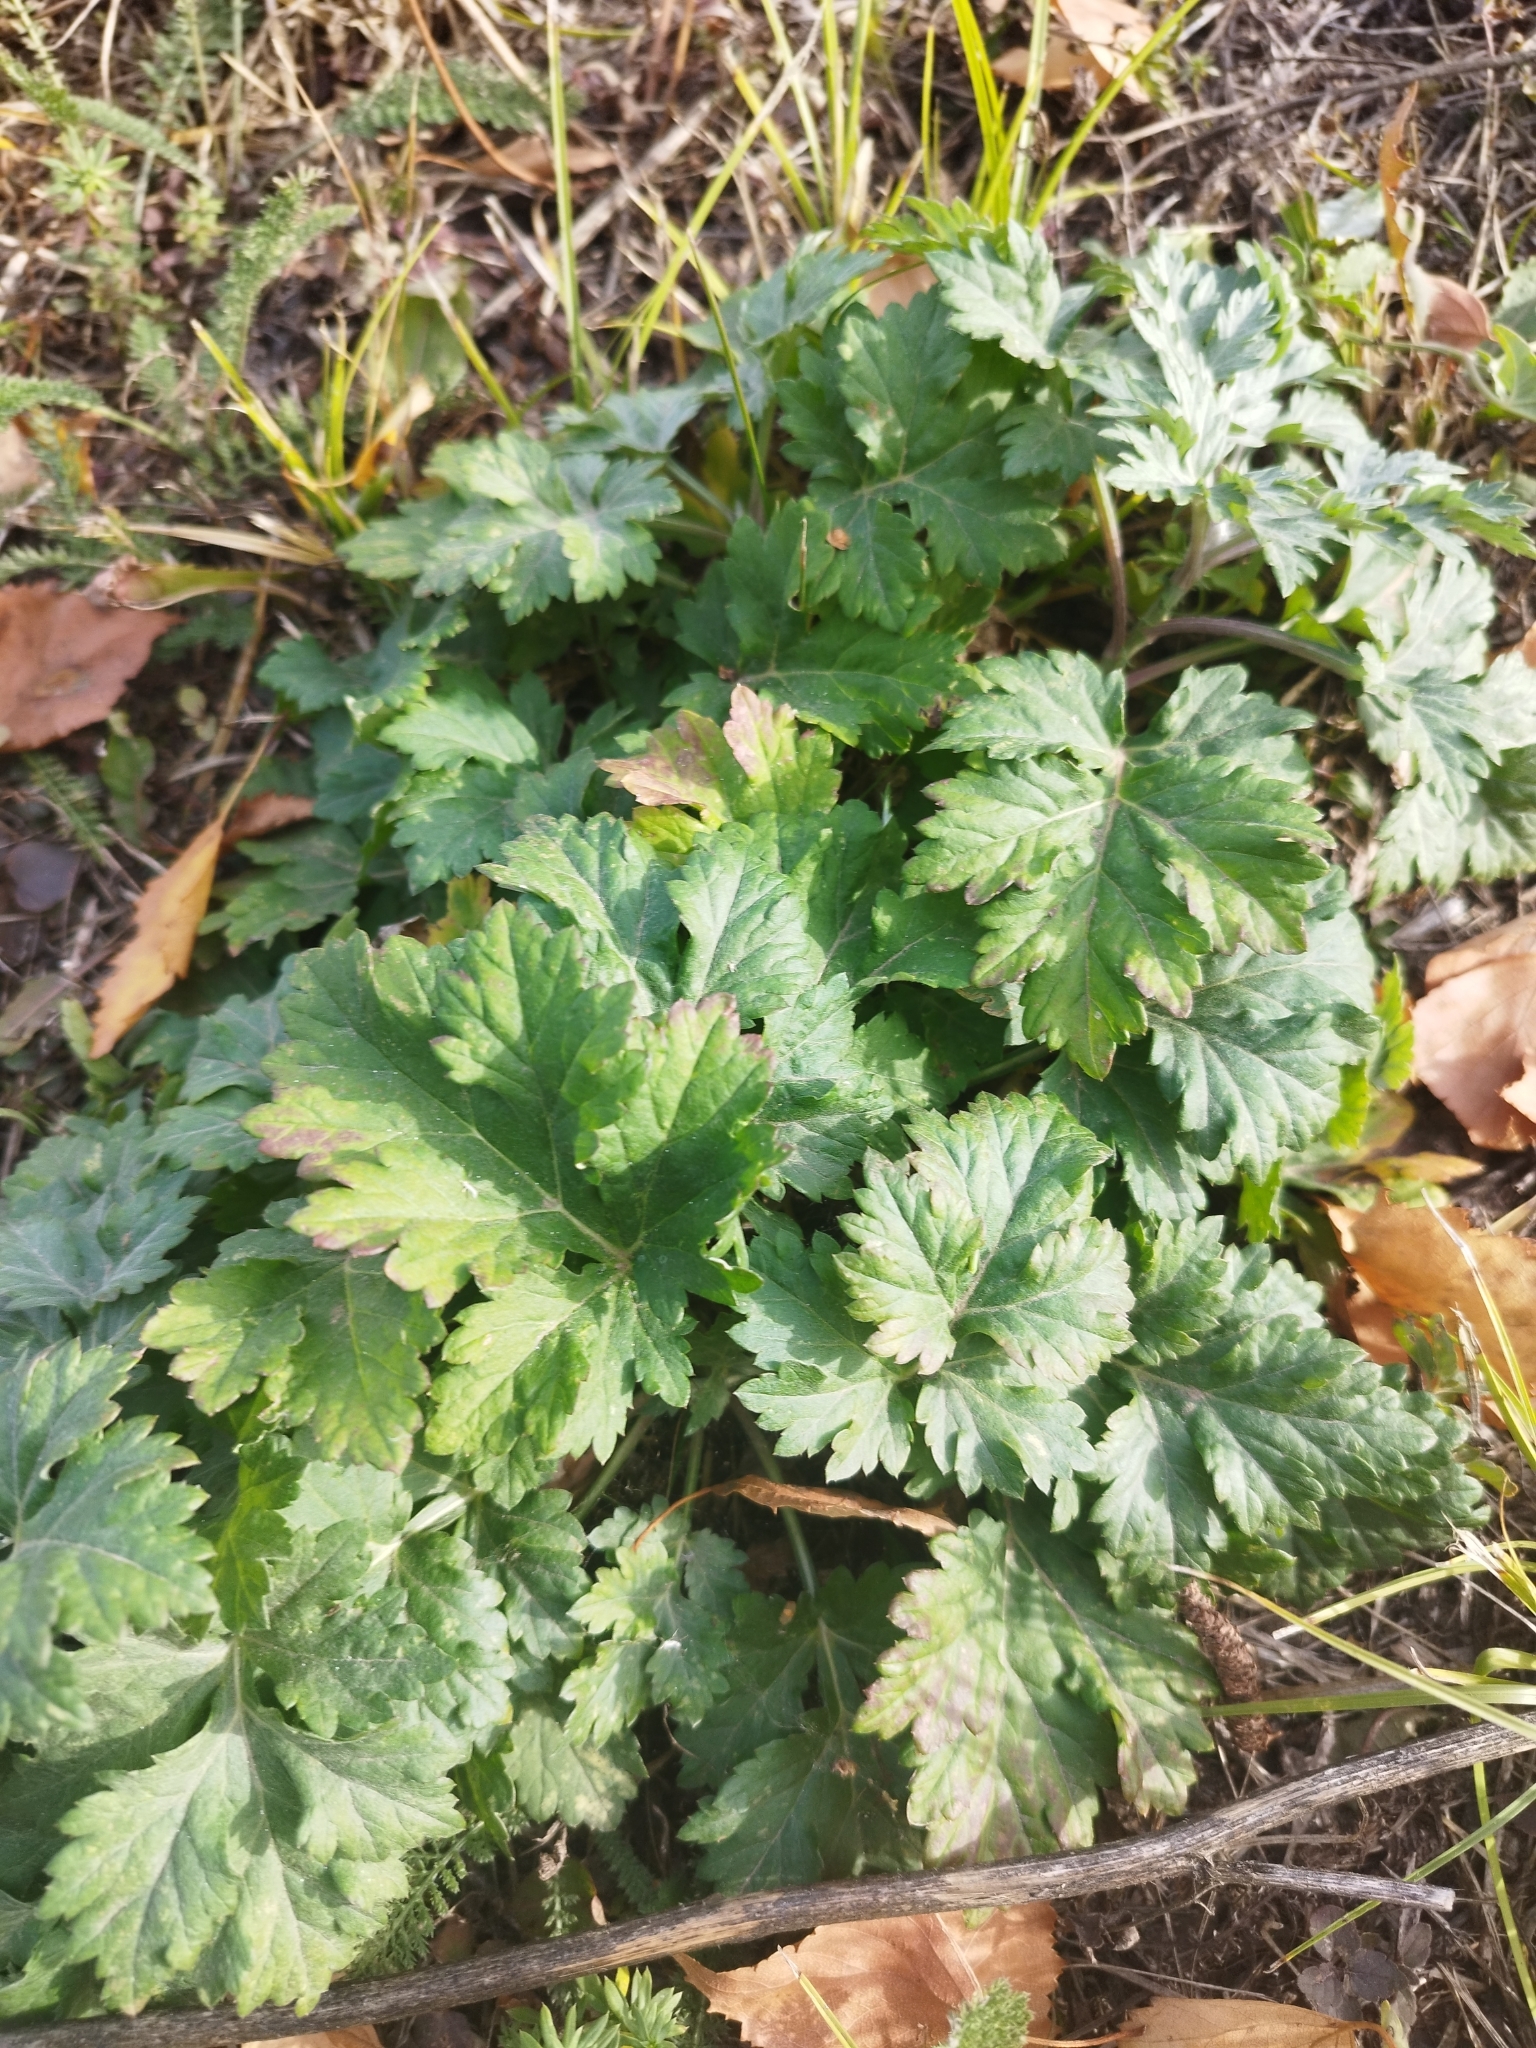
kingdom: Plantae
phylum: Tracheophyta
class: Magnoliopsida
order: Apiales
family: Apiaceae
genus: Heracleum
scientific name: Heracleum sphondylium
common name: Hogweed
